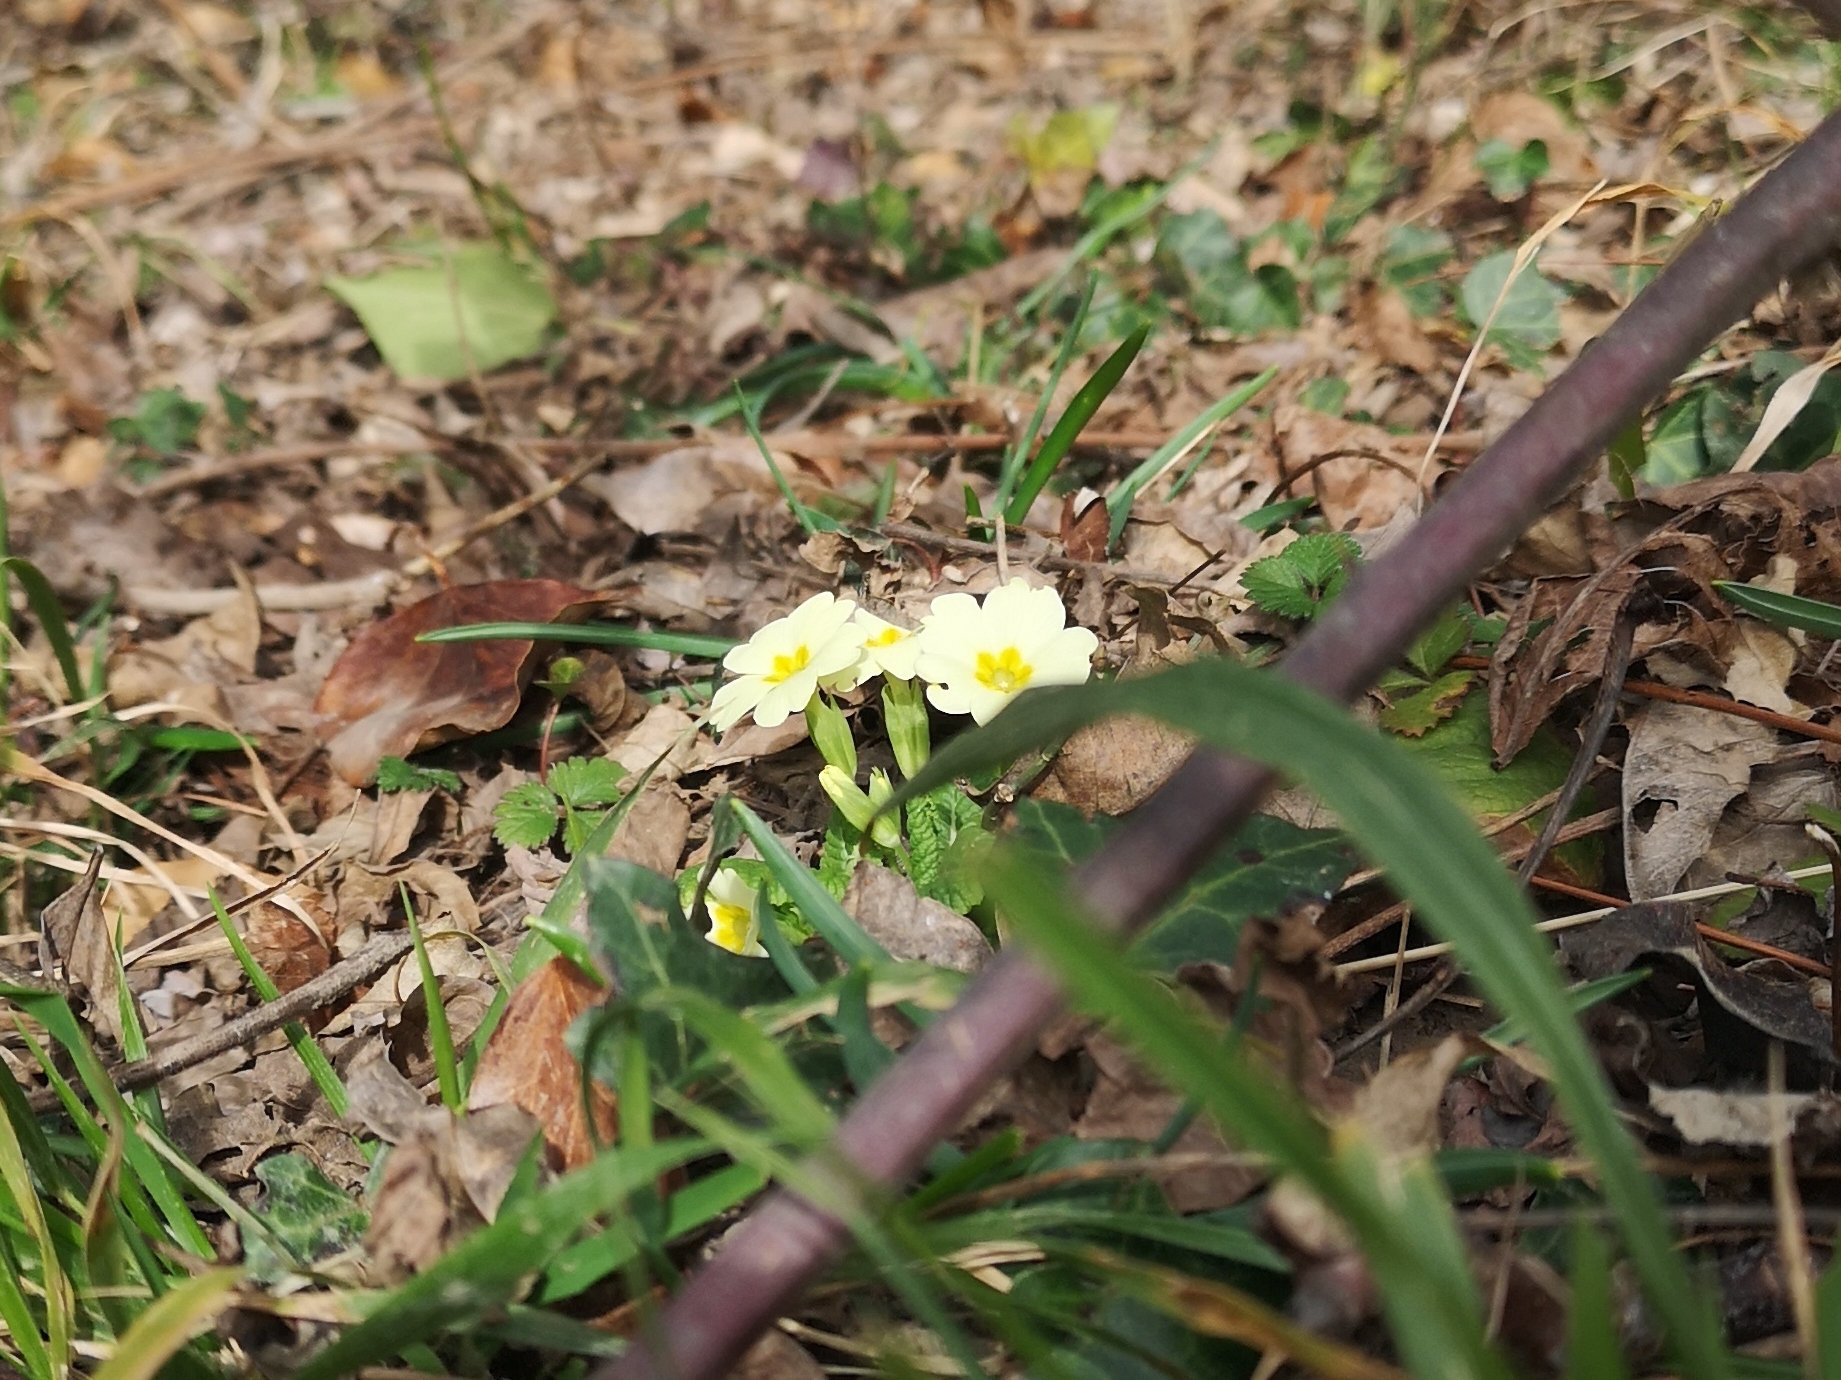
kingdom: Plantae
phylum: Tracheophyta
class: Magnoliopsida
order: Ericales
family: Primulaceae
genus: Primula
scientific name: Primula vulgaris
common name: Primrose
